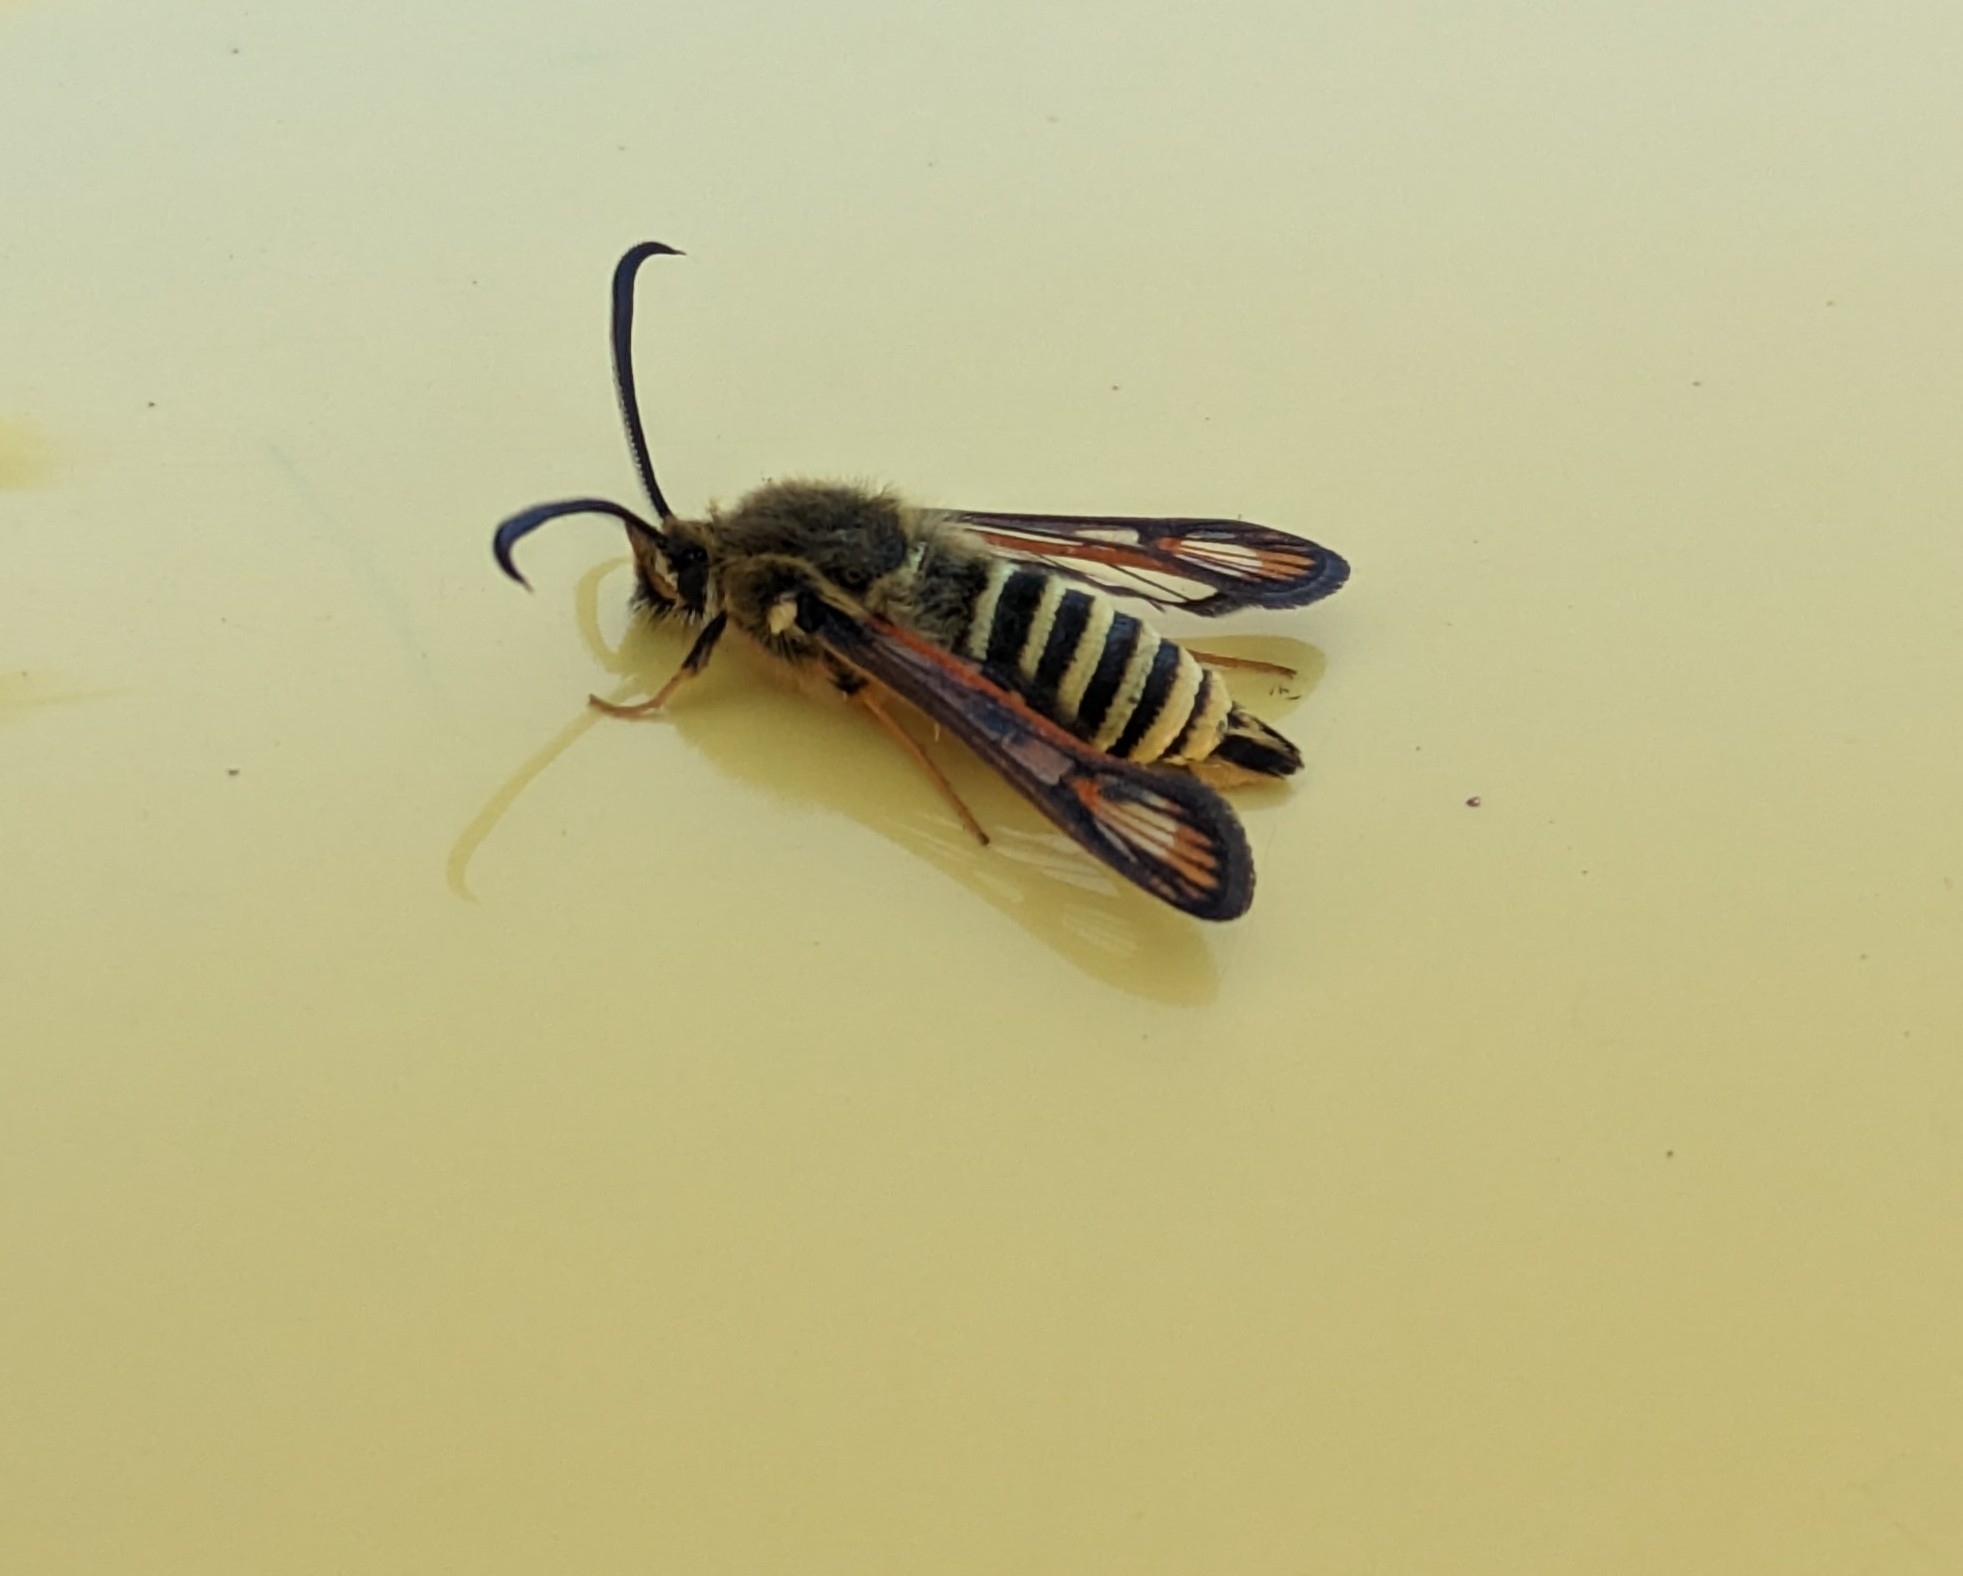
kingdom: Animalia
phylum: Arthropoda
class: Insecta
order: Lepidoptera
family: Sesiidae
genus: Bembecia
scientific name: Bembecia ichneumoniformis
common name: Six-belted clearwing
